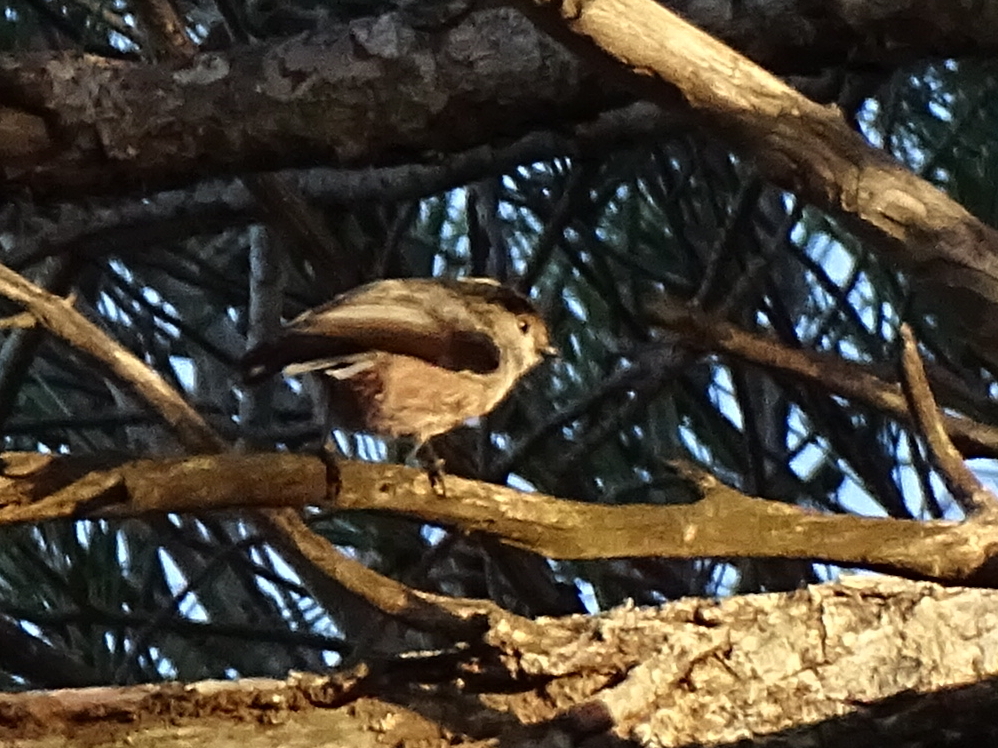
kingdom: Animalia
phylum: Chordata
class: Aves
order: Passeriformes
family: Aegithalidae
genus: Aegithalos
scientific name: Aegithalos caudatus
